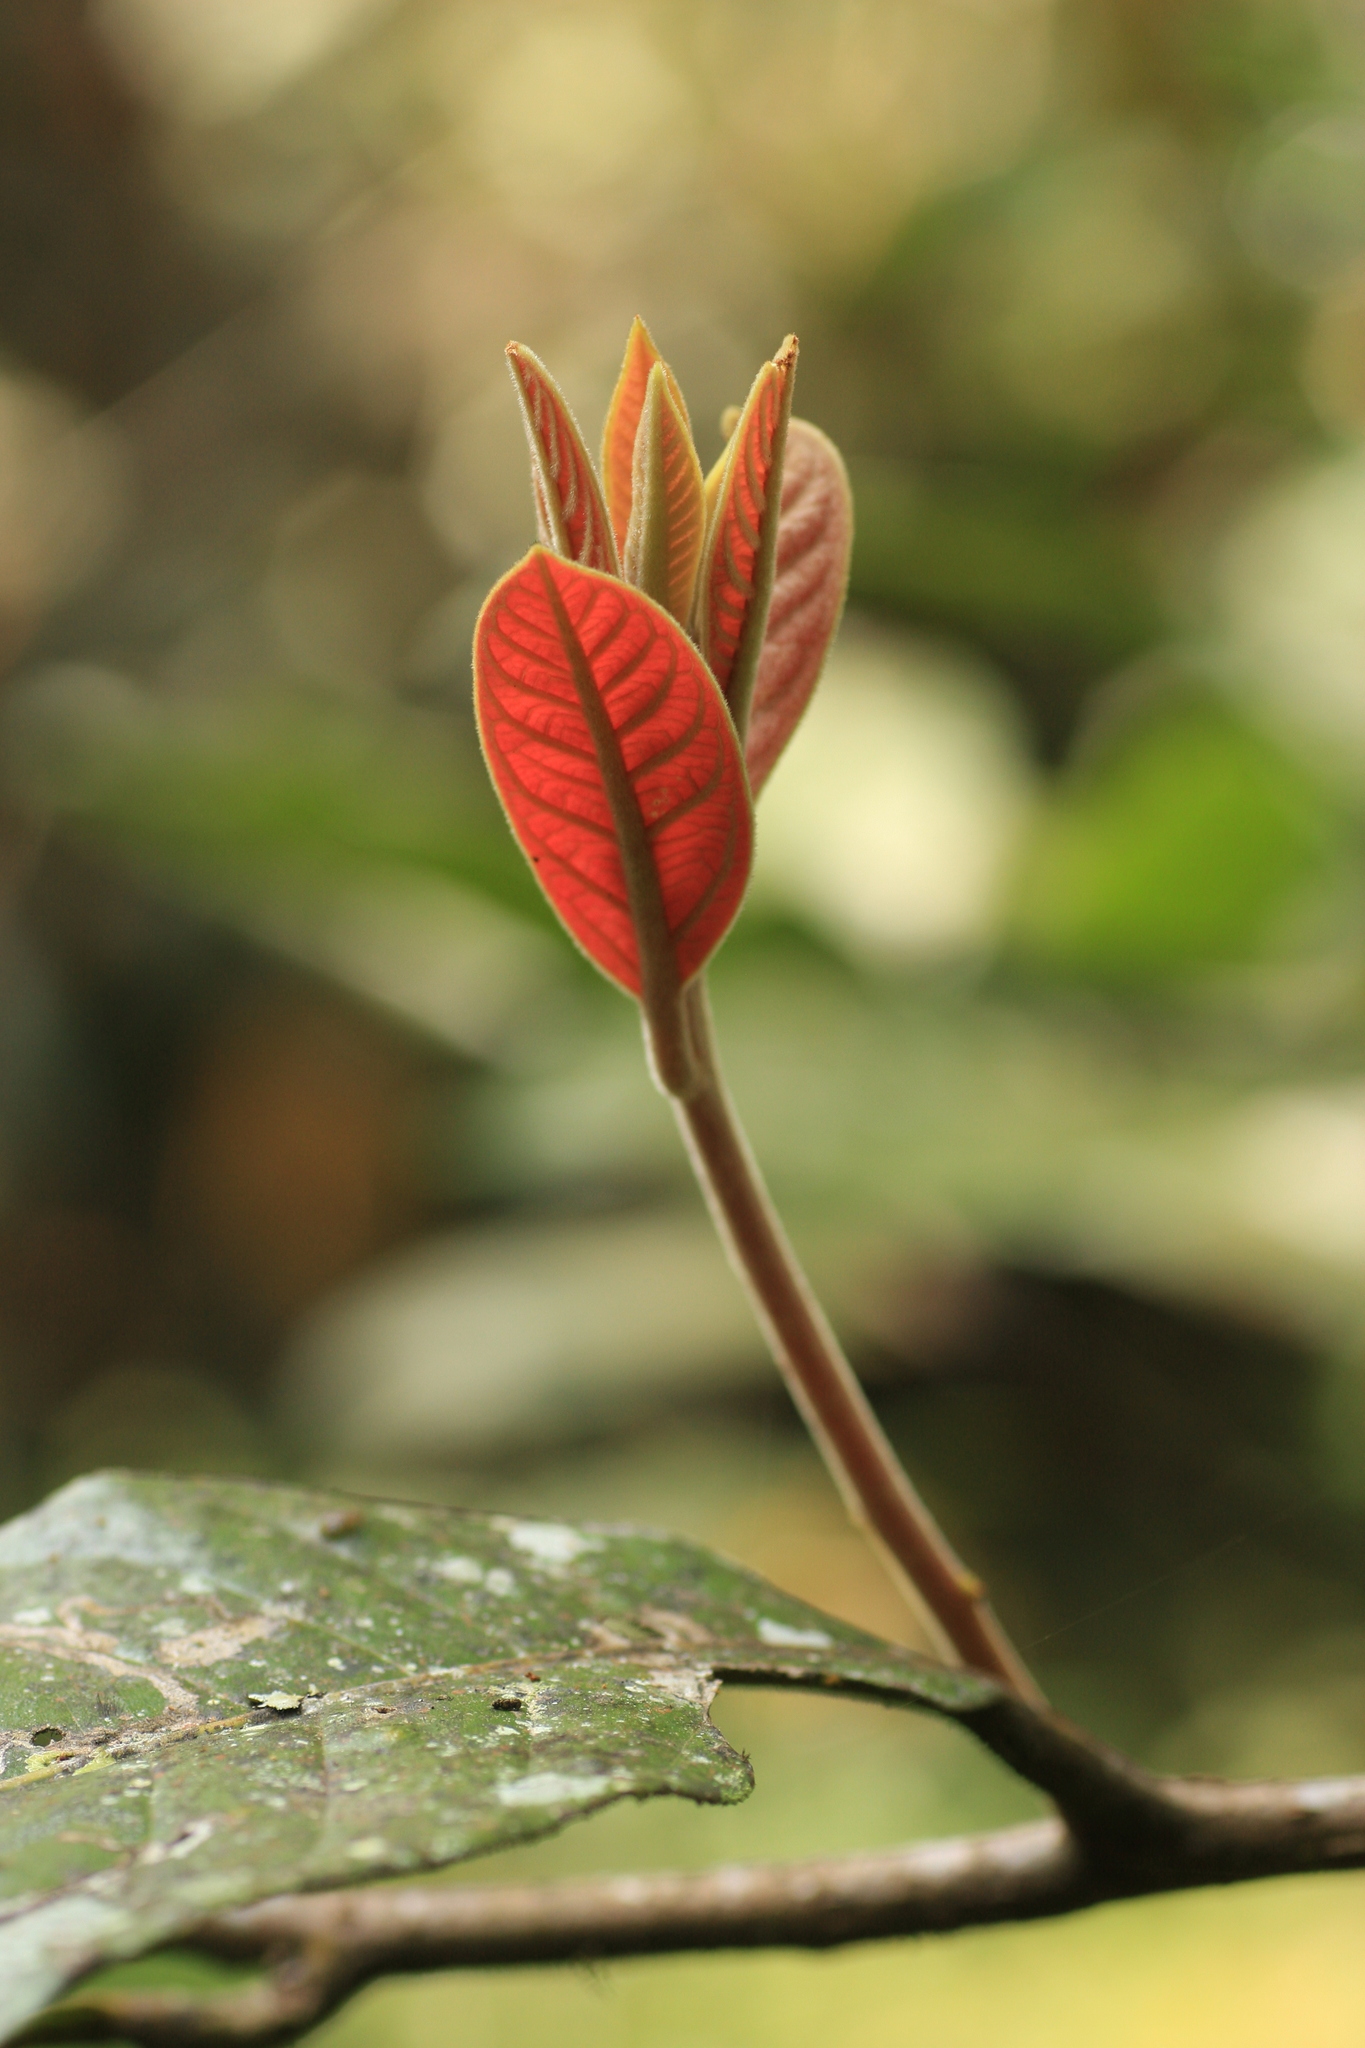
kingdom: Plantae
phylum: Tracheophyta
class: Magnoliopsida
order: Laurales
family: Lauraceae
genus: Litsea
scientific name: Litsea floribunda
